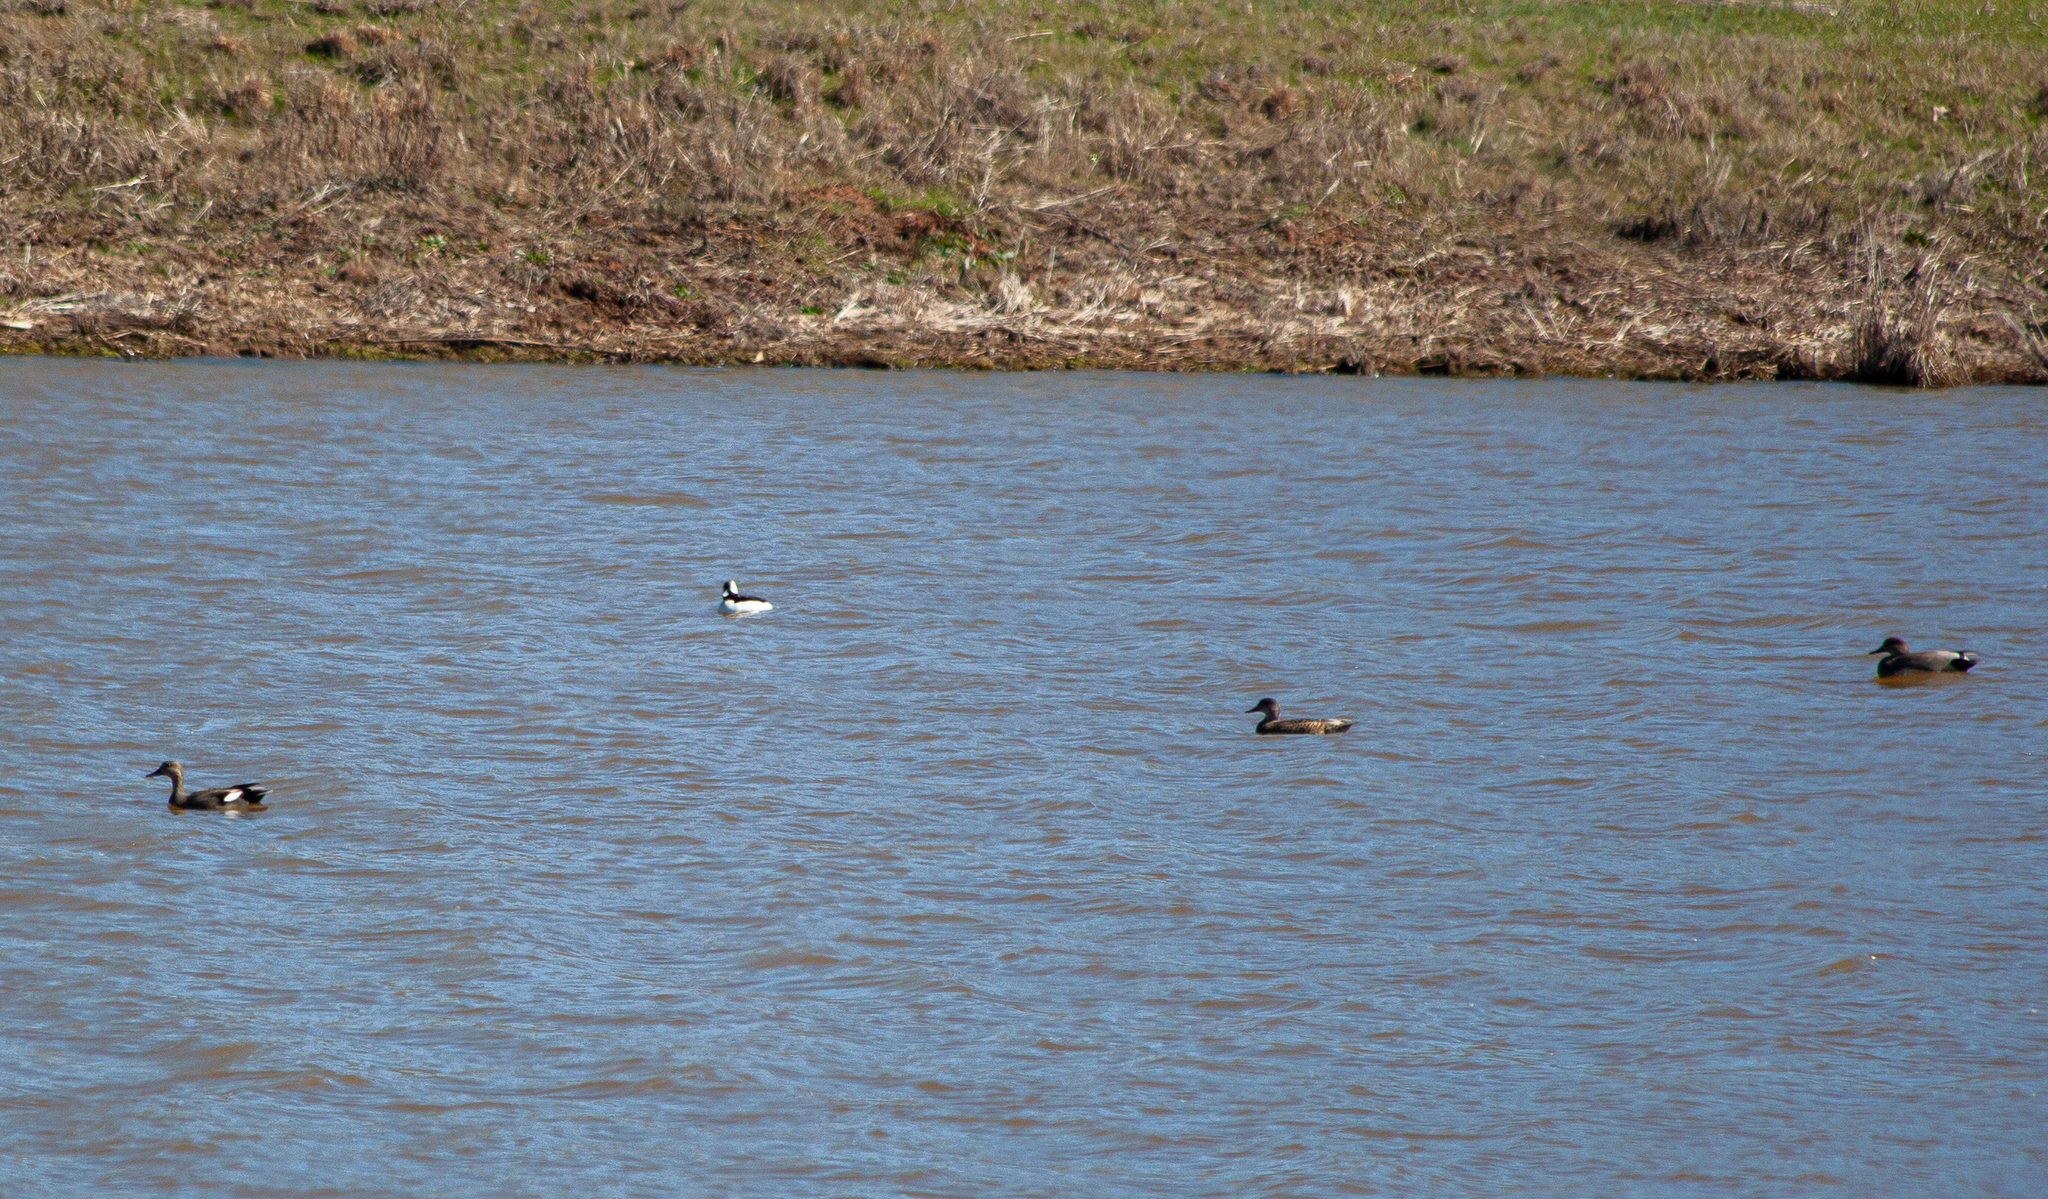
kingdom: Animalia
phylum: Chordata
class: Aves
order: Anseriformes
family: Anatidae
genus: Mareca
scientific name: Mareca strepera
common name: Gadwall
